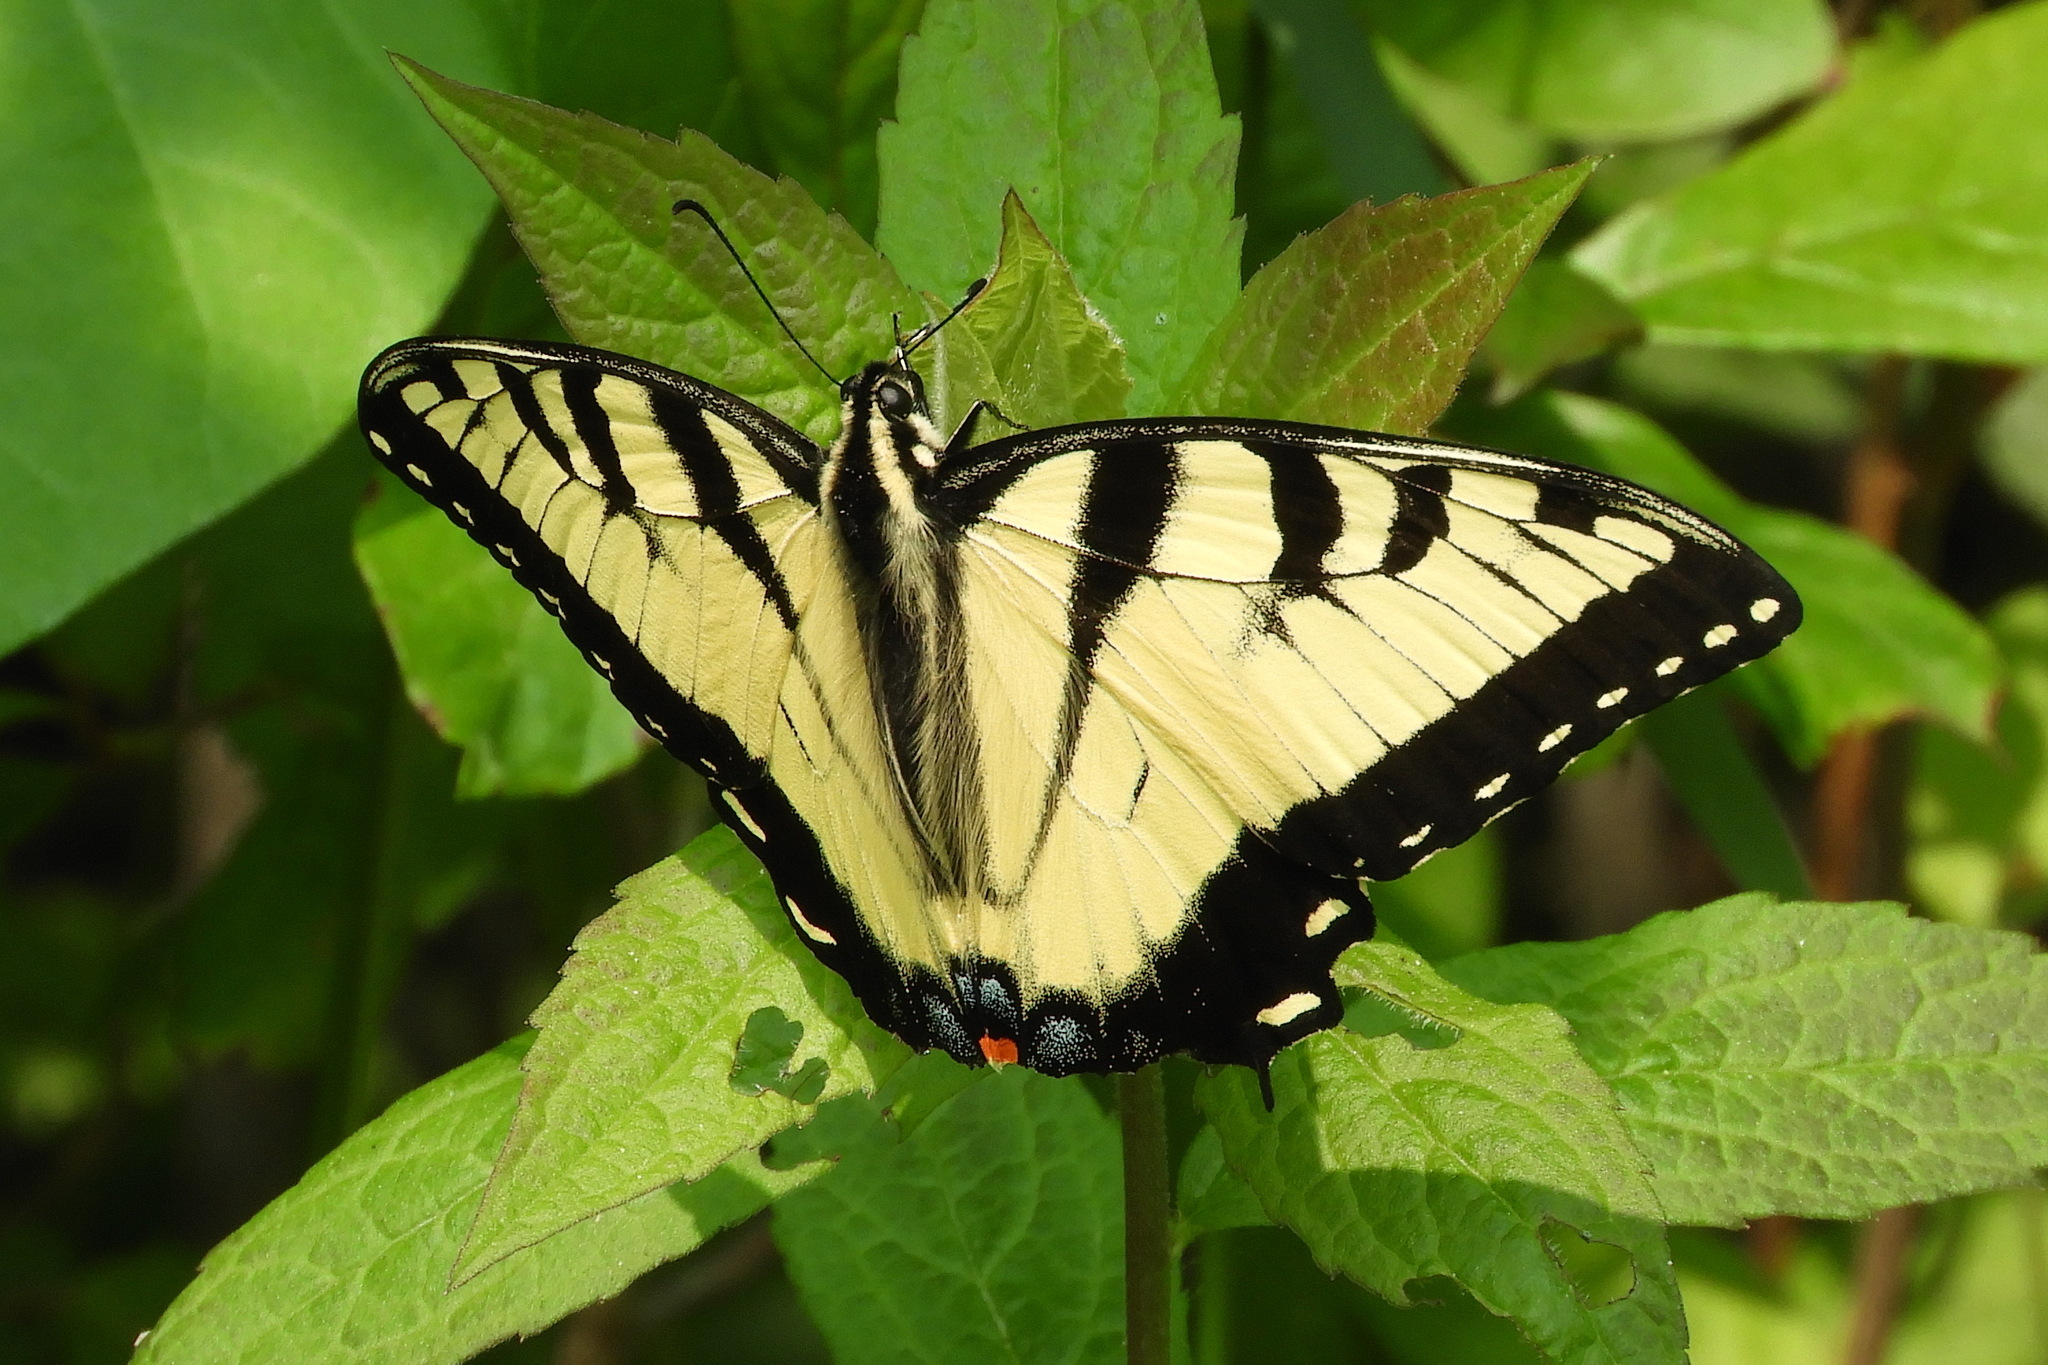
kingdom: Animalia
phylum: Arthropoda
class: Insecta
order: Lepidoptera
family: Papilionidae
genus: Papilio
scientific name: Papilio glaucus
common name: Tiger swallowtail
